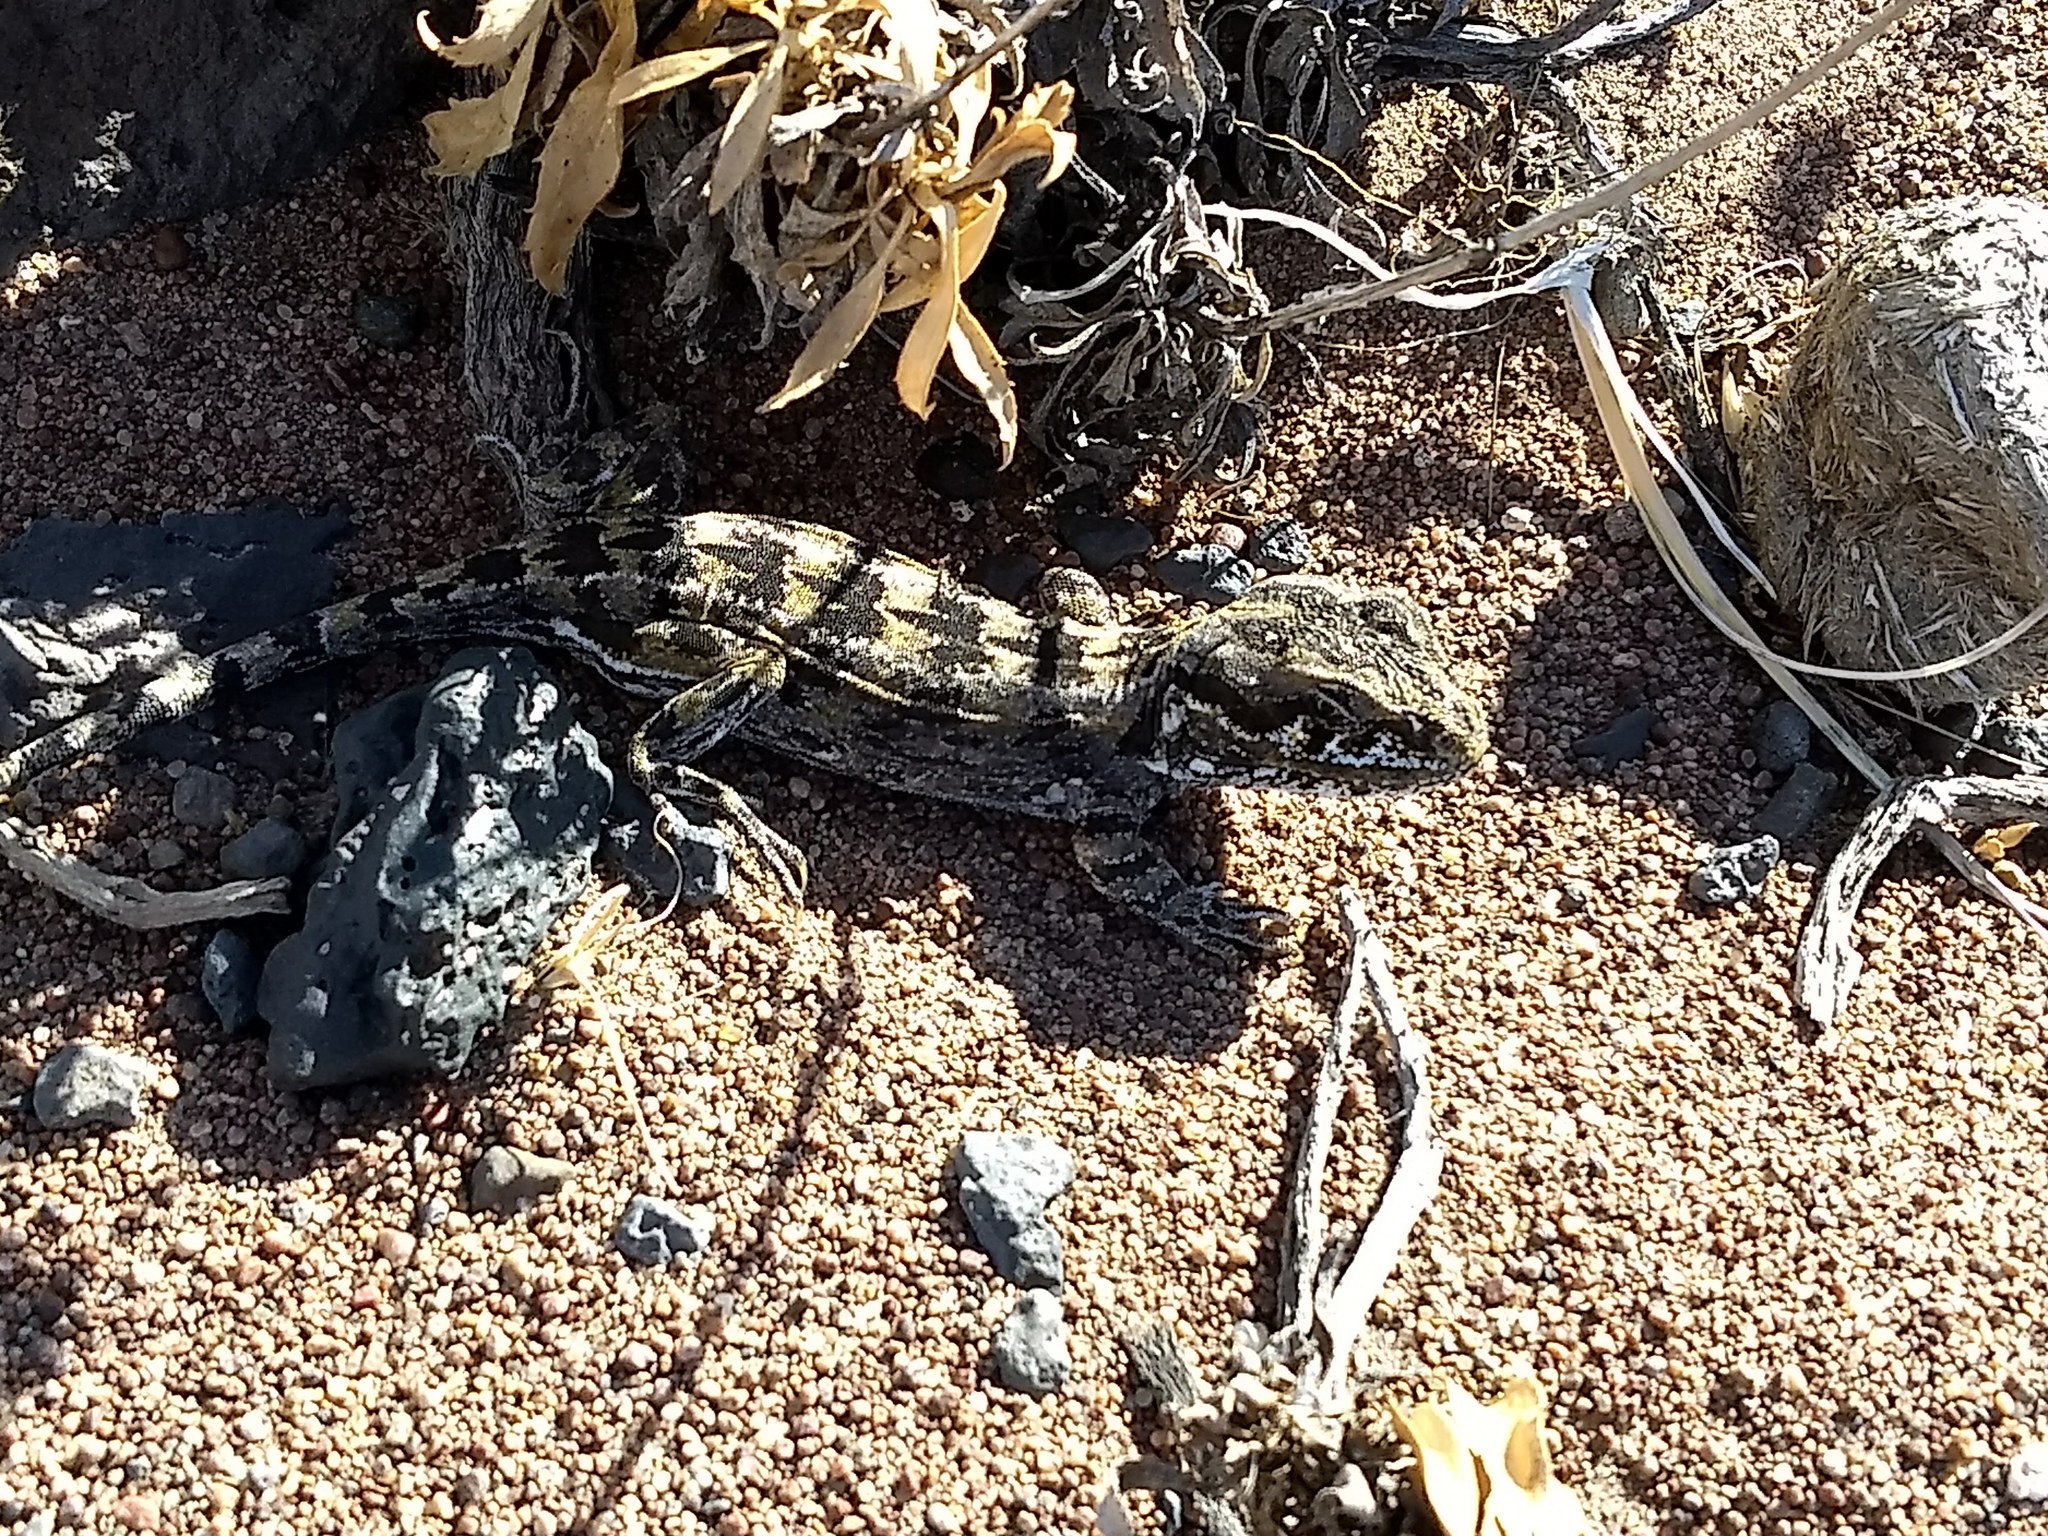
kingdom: Animalia
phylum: Chordata
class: Squamata
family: Leiosauridae
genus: Leiosaurus
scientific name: Leiosaurus bellii
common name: Bell's anole
